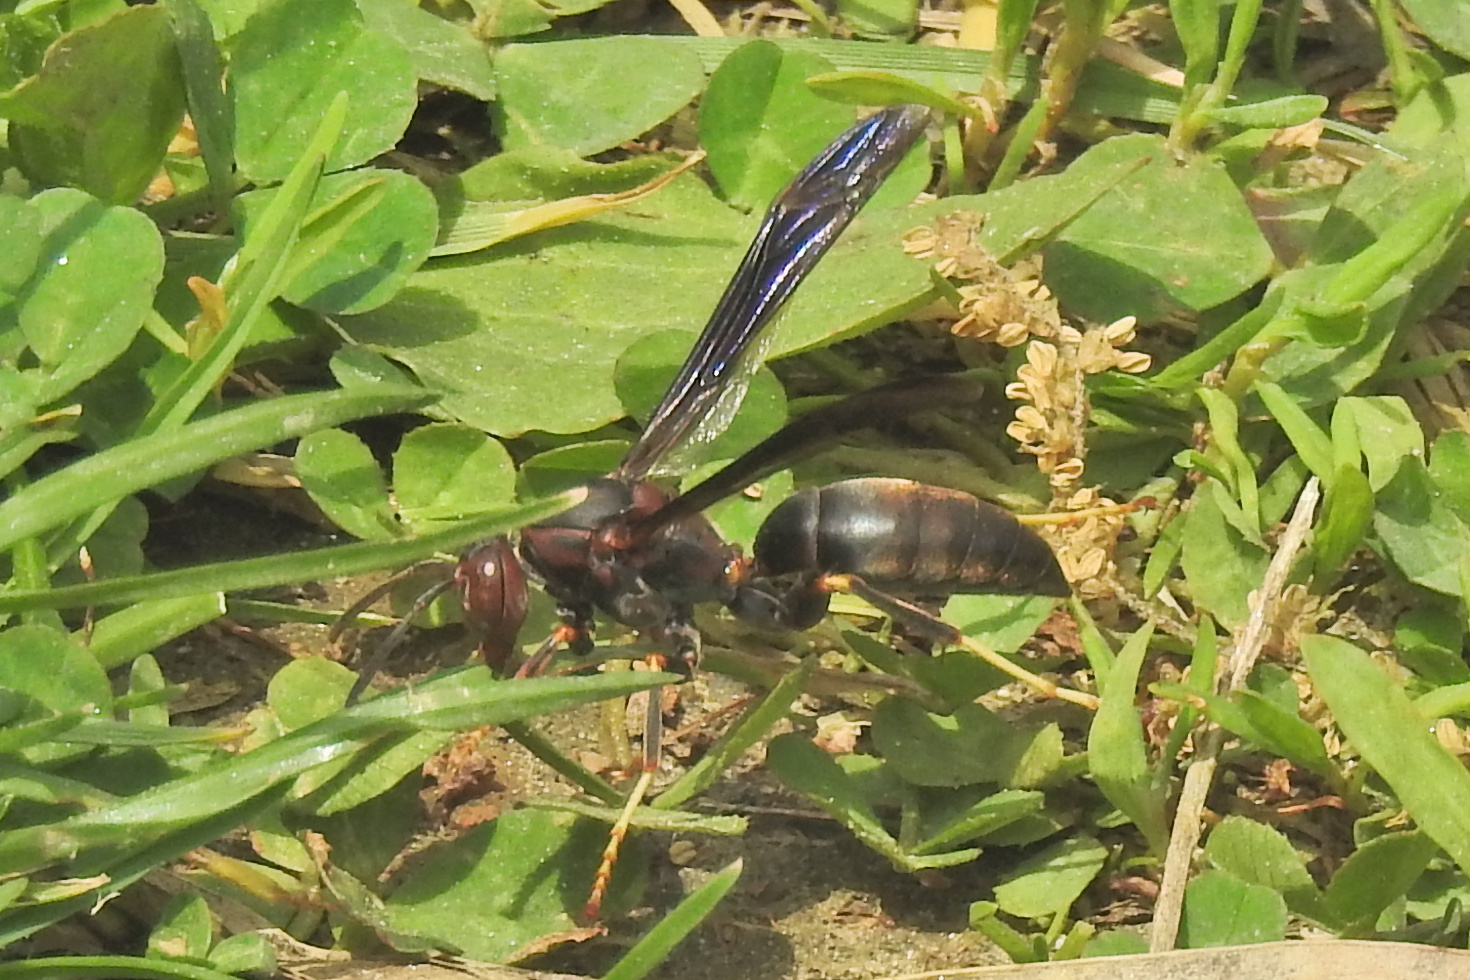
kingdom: Animalia
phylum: Arthropoda
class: Insecta
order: Hymenoptera
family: Eumenidae
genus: Polistes
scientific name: Polistes metricus
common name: Metric paper wasp
